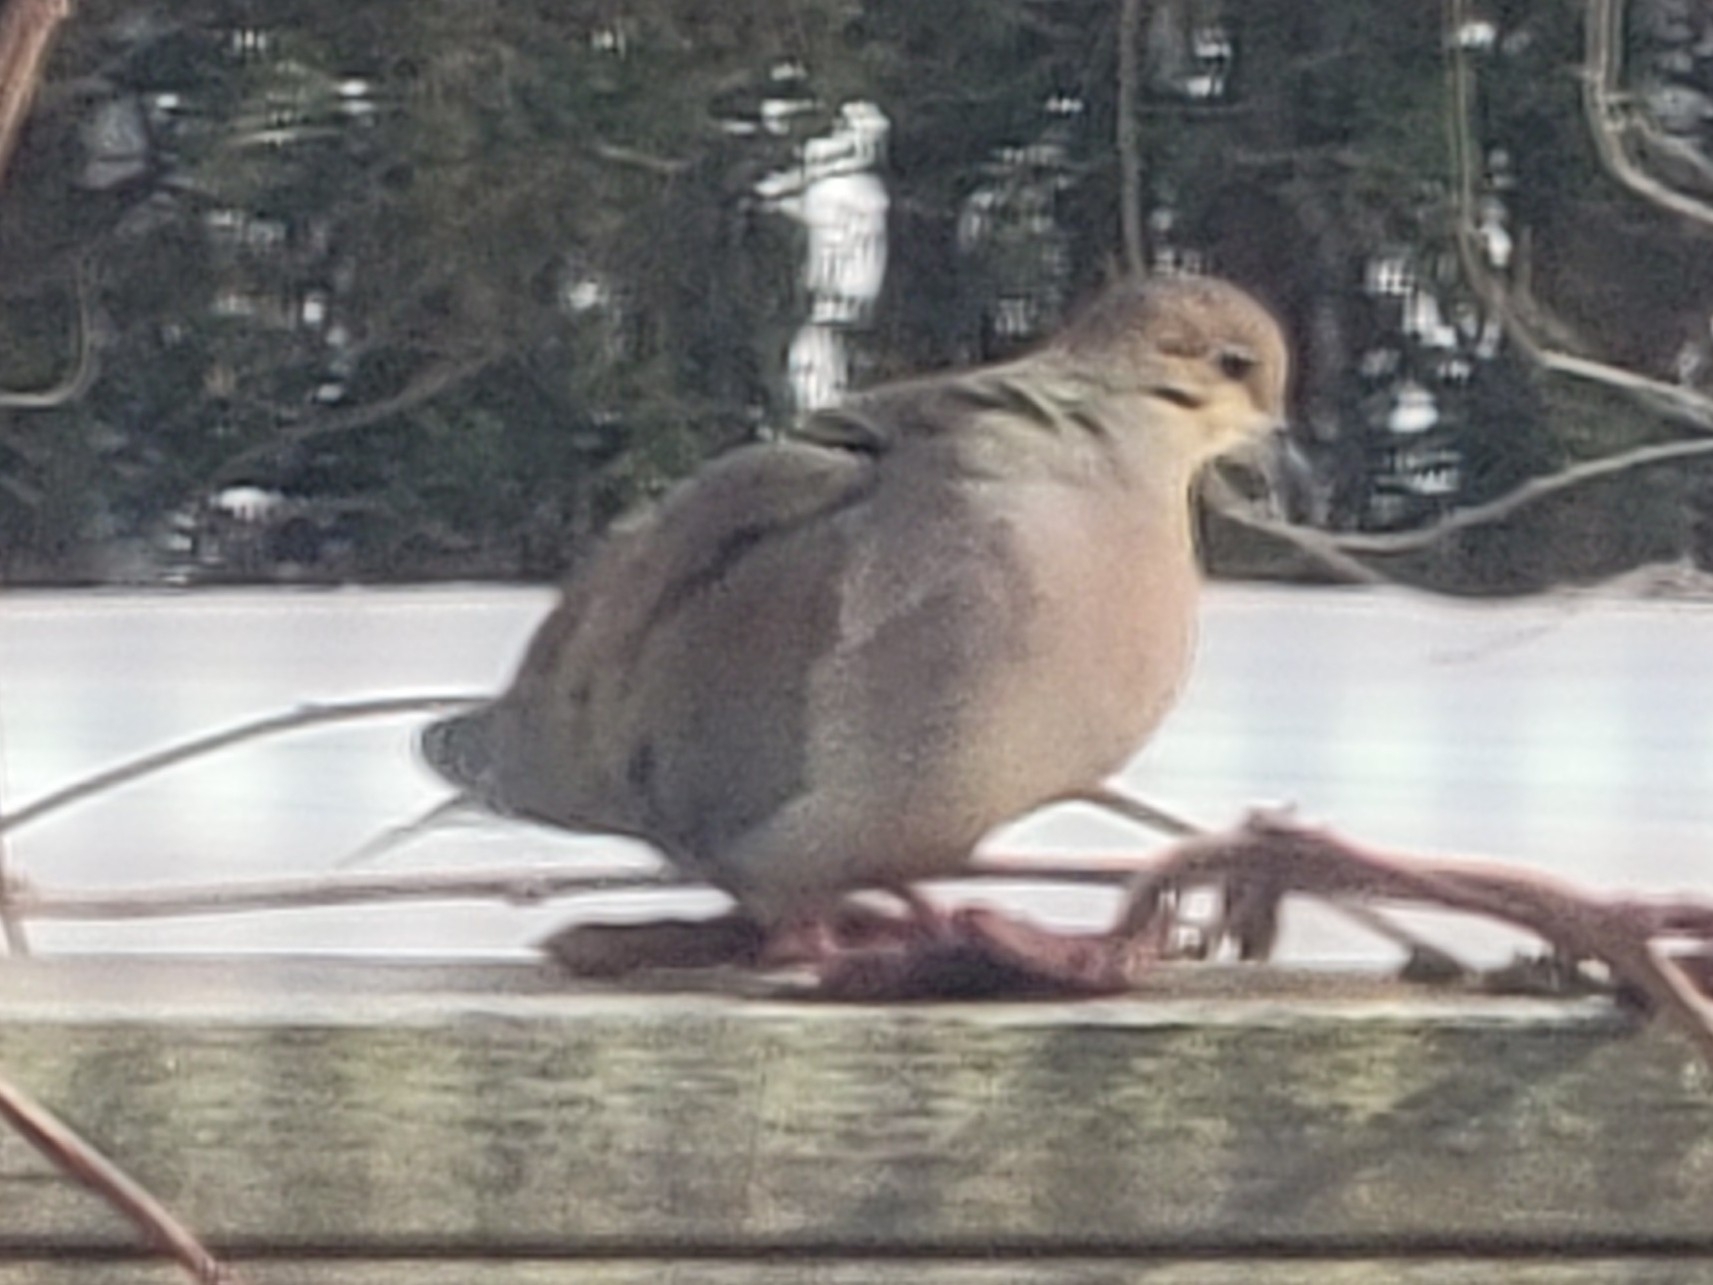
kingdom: Animalia
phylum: Chordata
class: Aves
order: Columbiformes
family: Columbidae
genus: Zenaida
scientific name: Zenaida macroura
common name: Mourning dove
